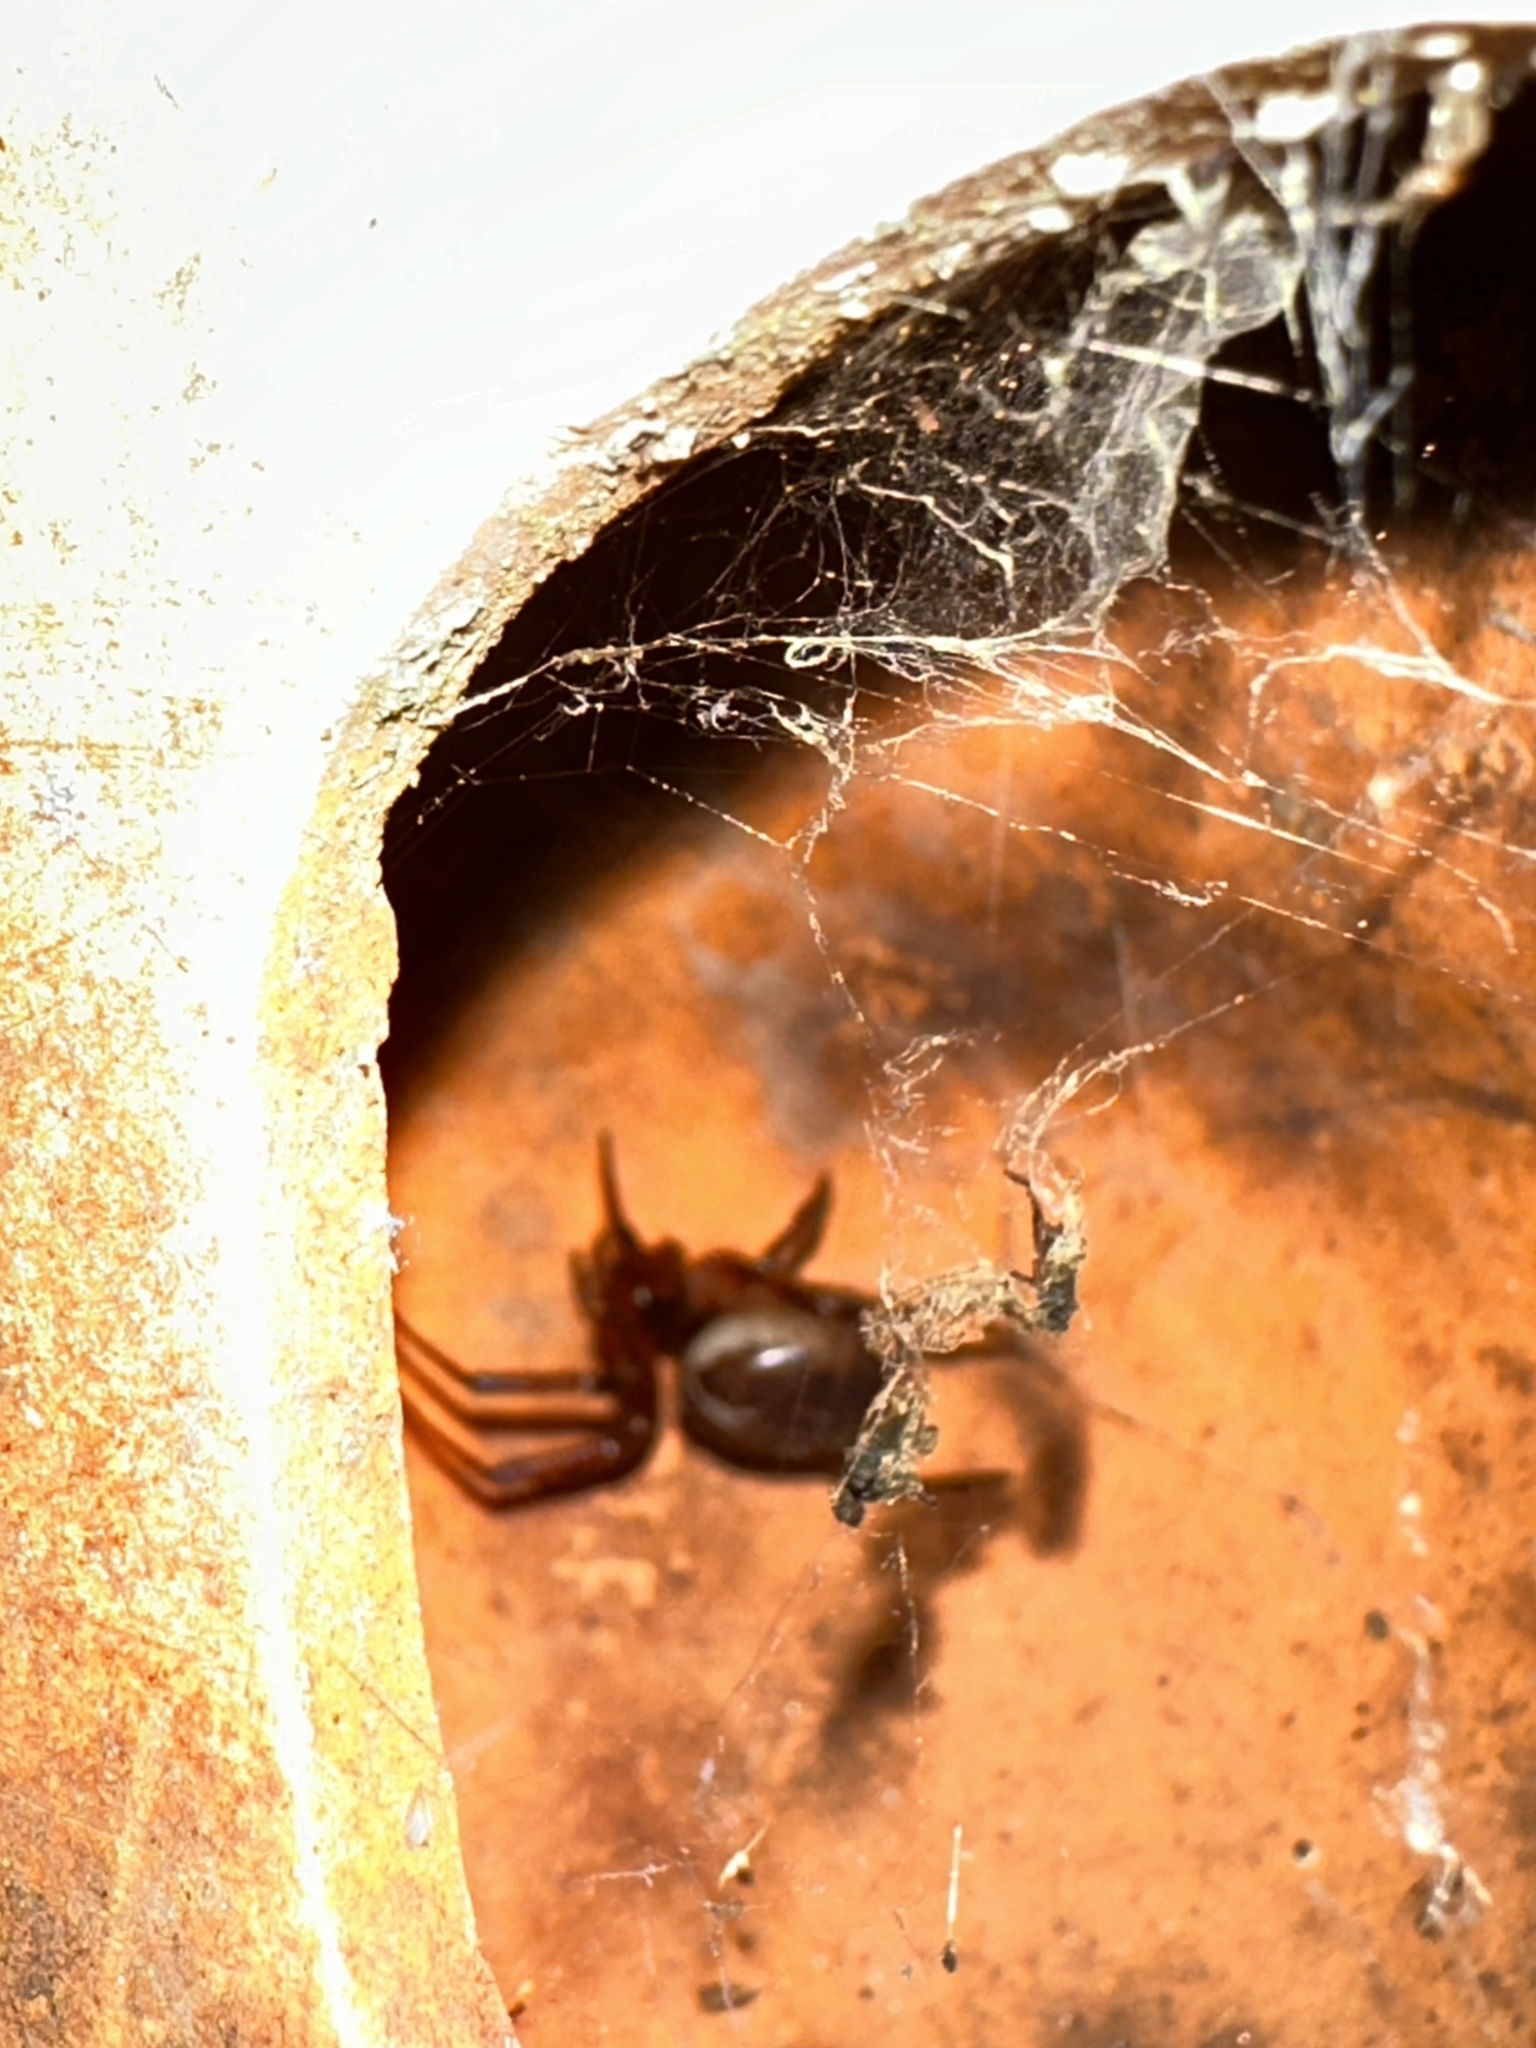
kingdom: Animalia
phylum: Arthropoda
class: Arachnida
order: Araneae
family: Theridiidae
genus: Steatoda
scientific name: Steatoda nobilis
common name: Cobweb weaver
